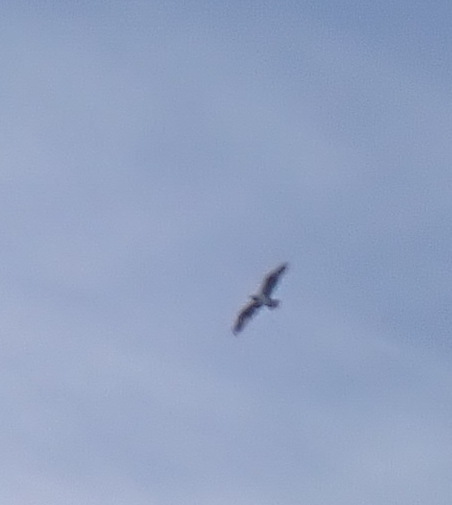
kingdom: Animalia
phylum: Chordata
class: Aves
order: Accipitriformes
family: Pandionidae
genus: Pandion
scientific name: Pandion haliaetus
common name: Osprey
